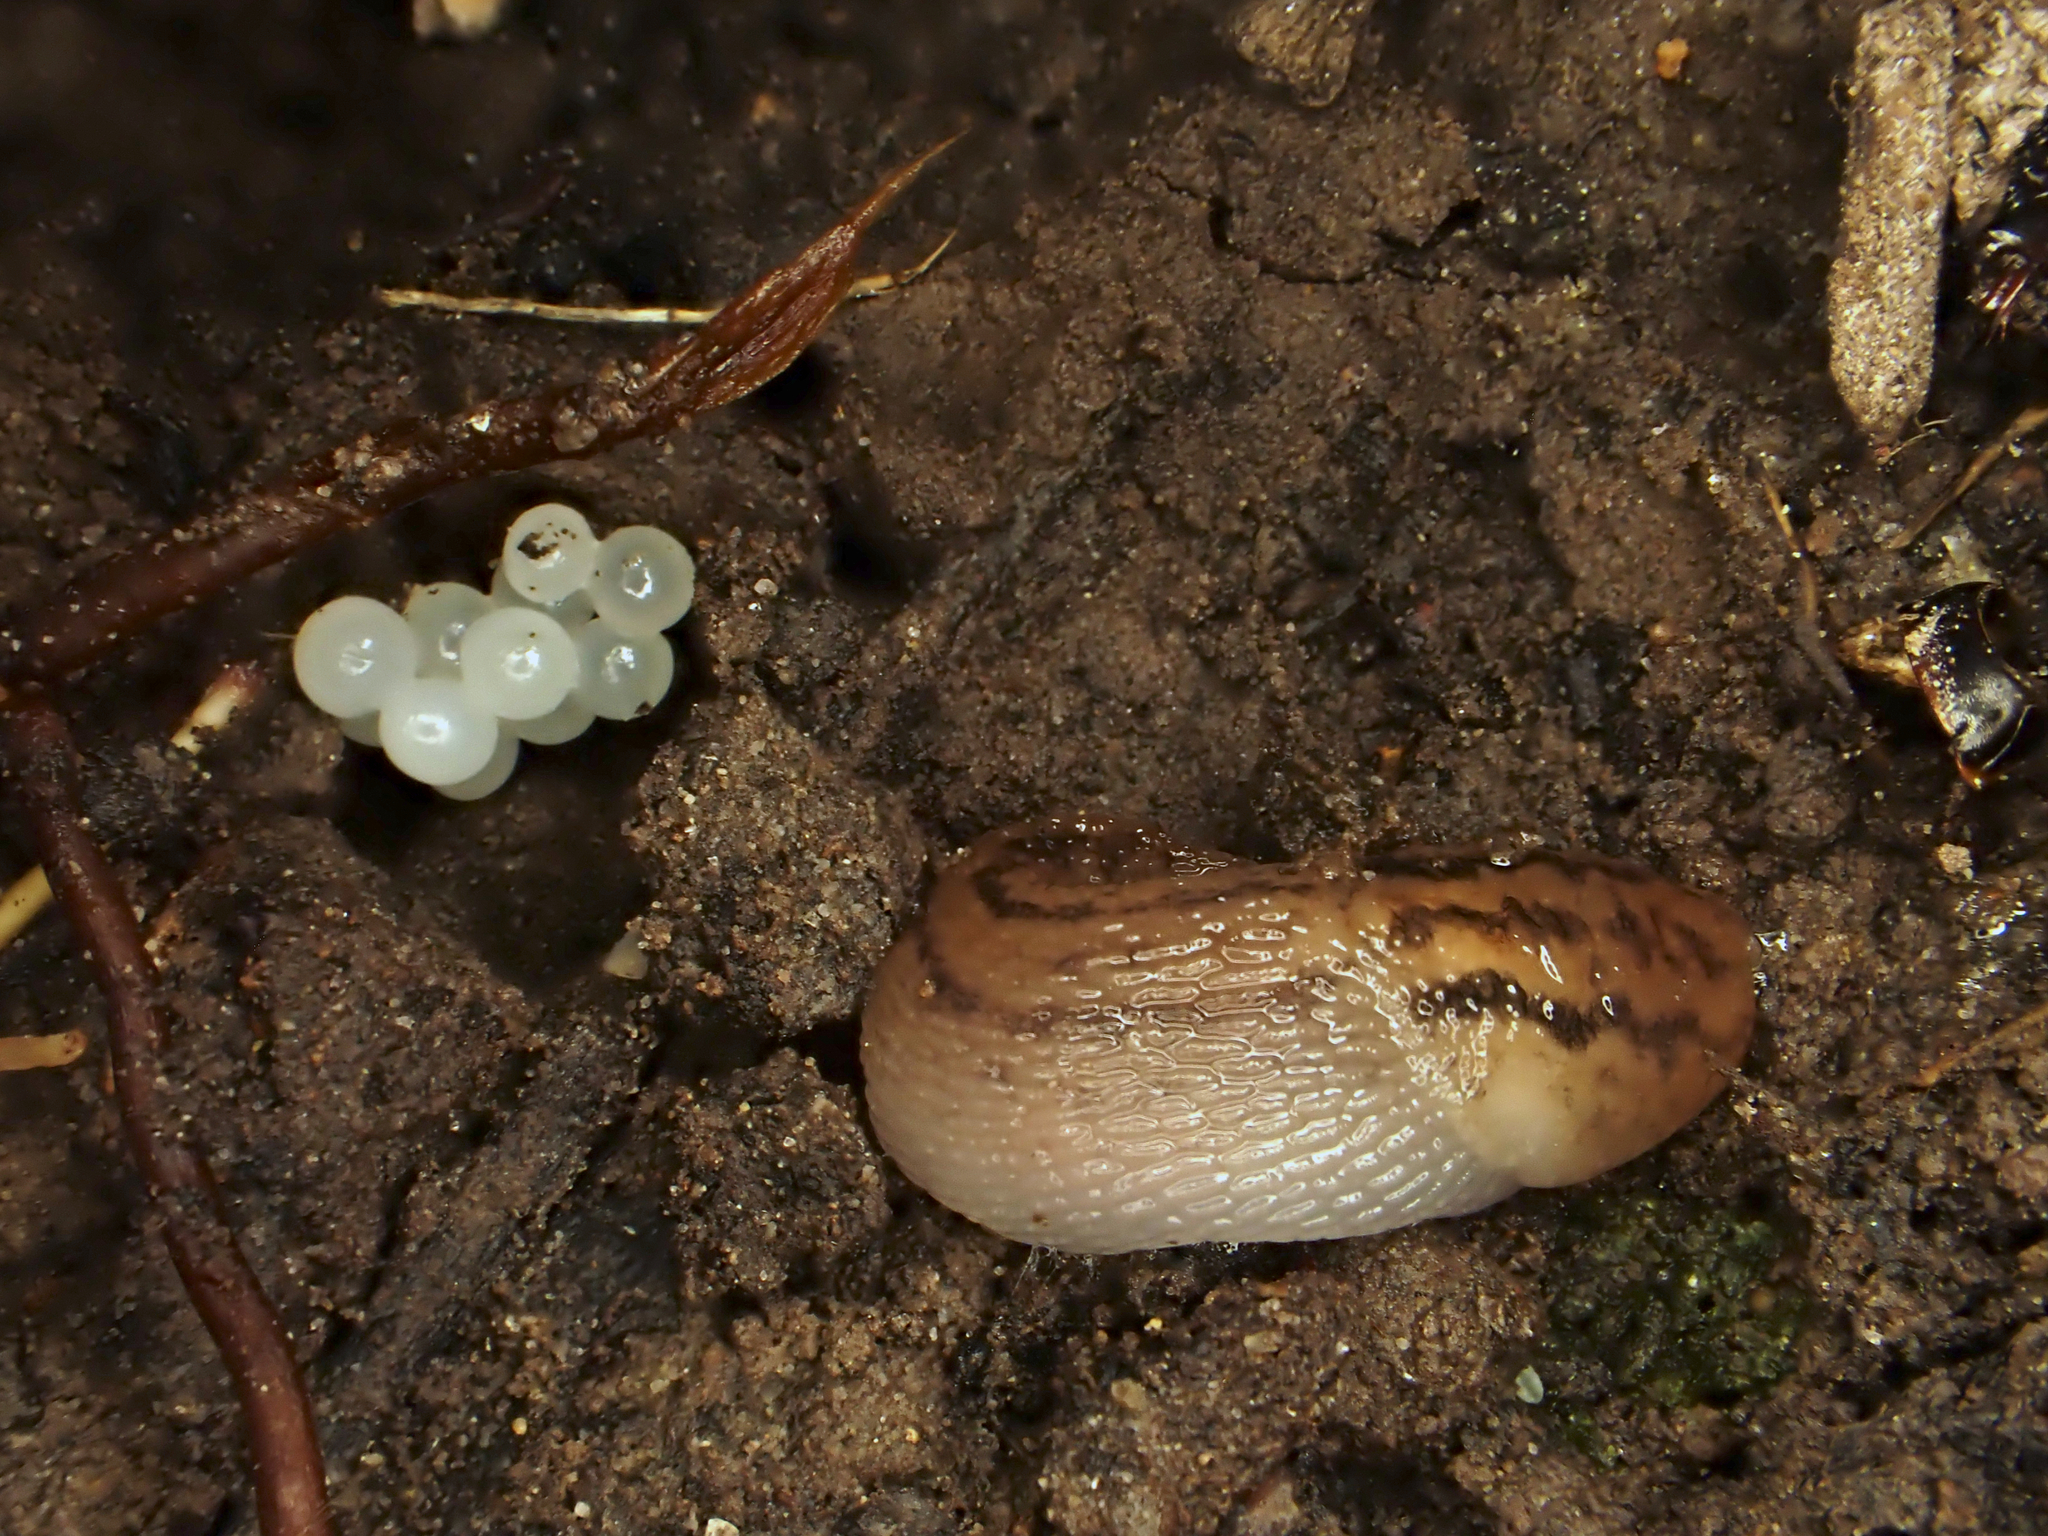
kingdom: Animalia
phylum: Mollusca
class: Gastropoda
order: Stylommatophora
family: Limacidae
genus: Ambigolimax
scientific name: Ambigolimax
